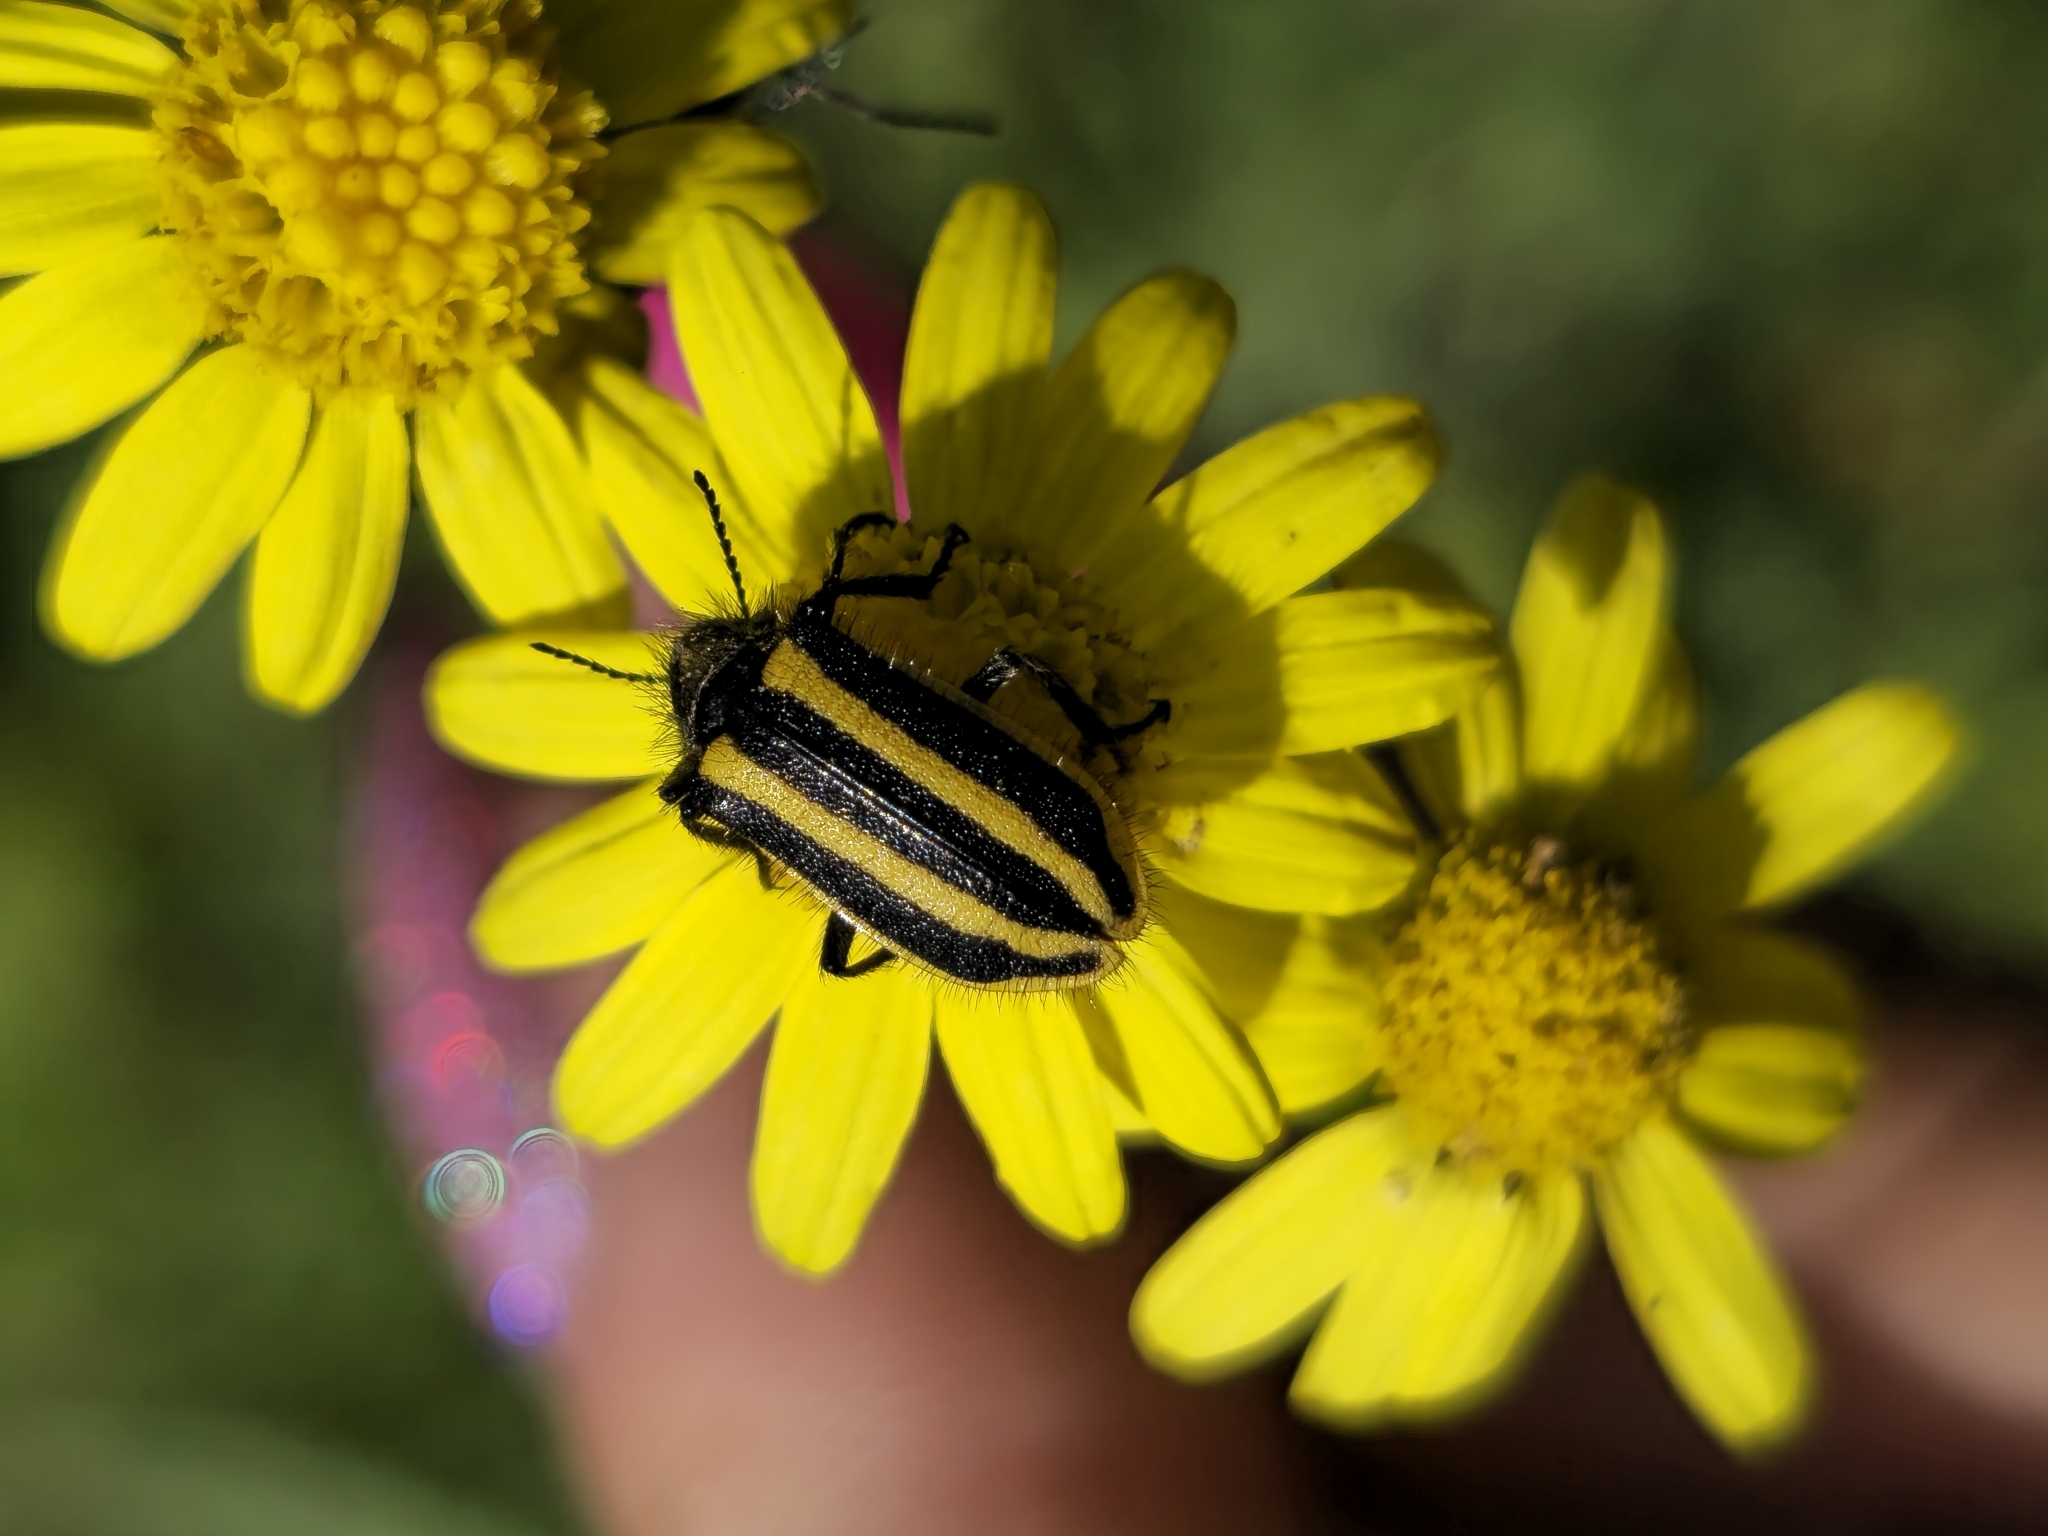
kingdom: Animalia
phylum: Arthropoda
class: Insecta
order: Coleoptera
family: Melyridae
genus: Astylus
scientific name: Astylus vittaticollis
